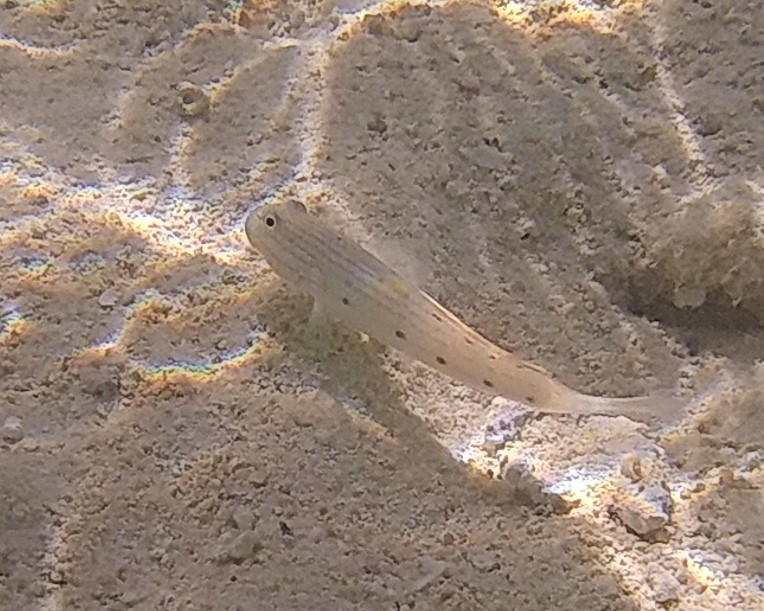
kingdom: Animalia
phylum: Chordata
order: Perciformes
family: Gobiidae
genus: Valenciennea
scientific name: Valenciennea longipinnis
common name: Longfinned goby
